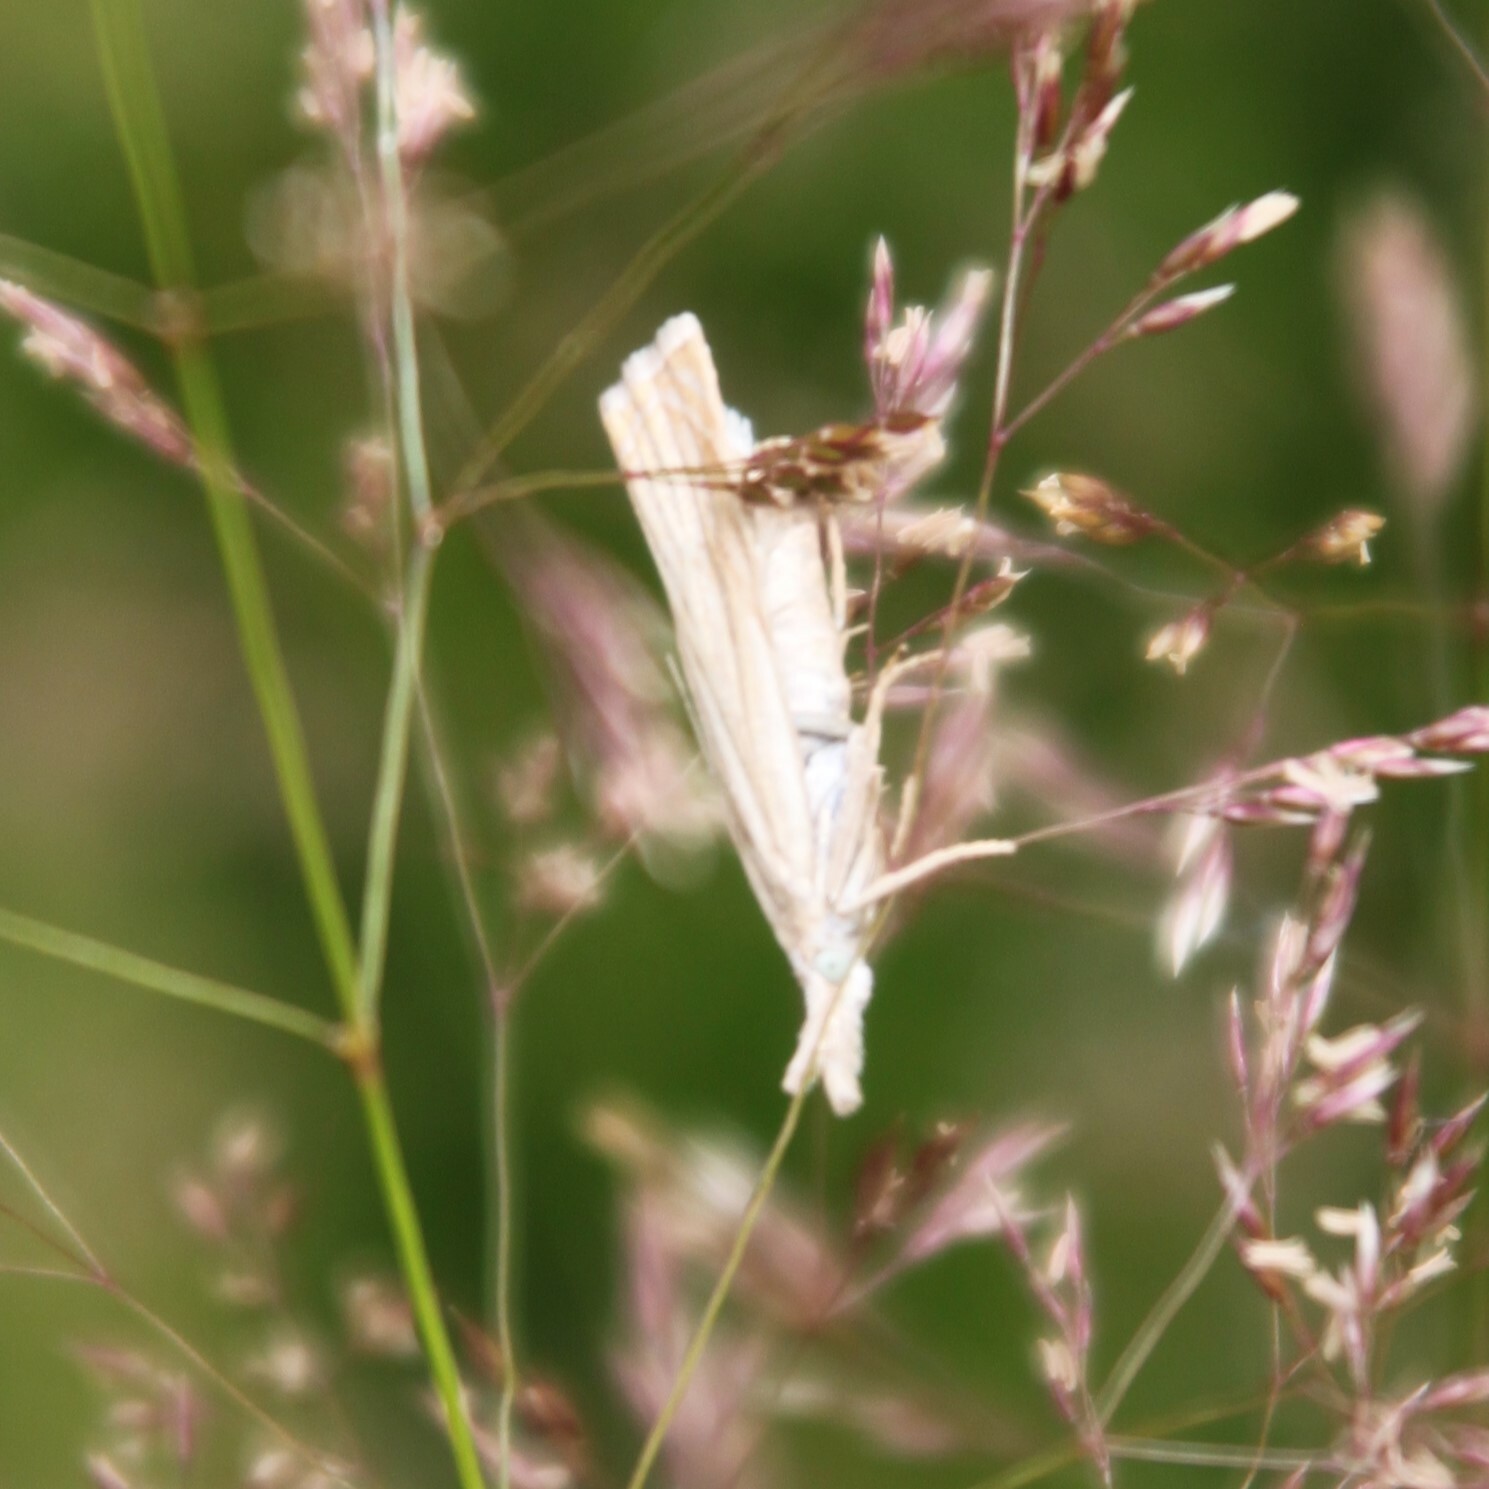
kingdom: Animalia
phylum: Arthropoda
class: Insecta
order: Lepidoptera
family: Crambidae
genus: Chrysoteuchia
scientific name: Chrysoteuchia culmella
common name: Garden grass-veneer
